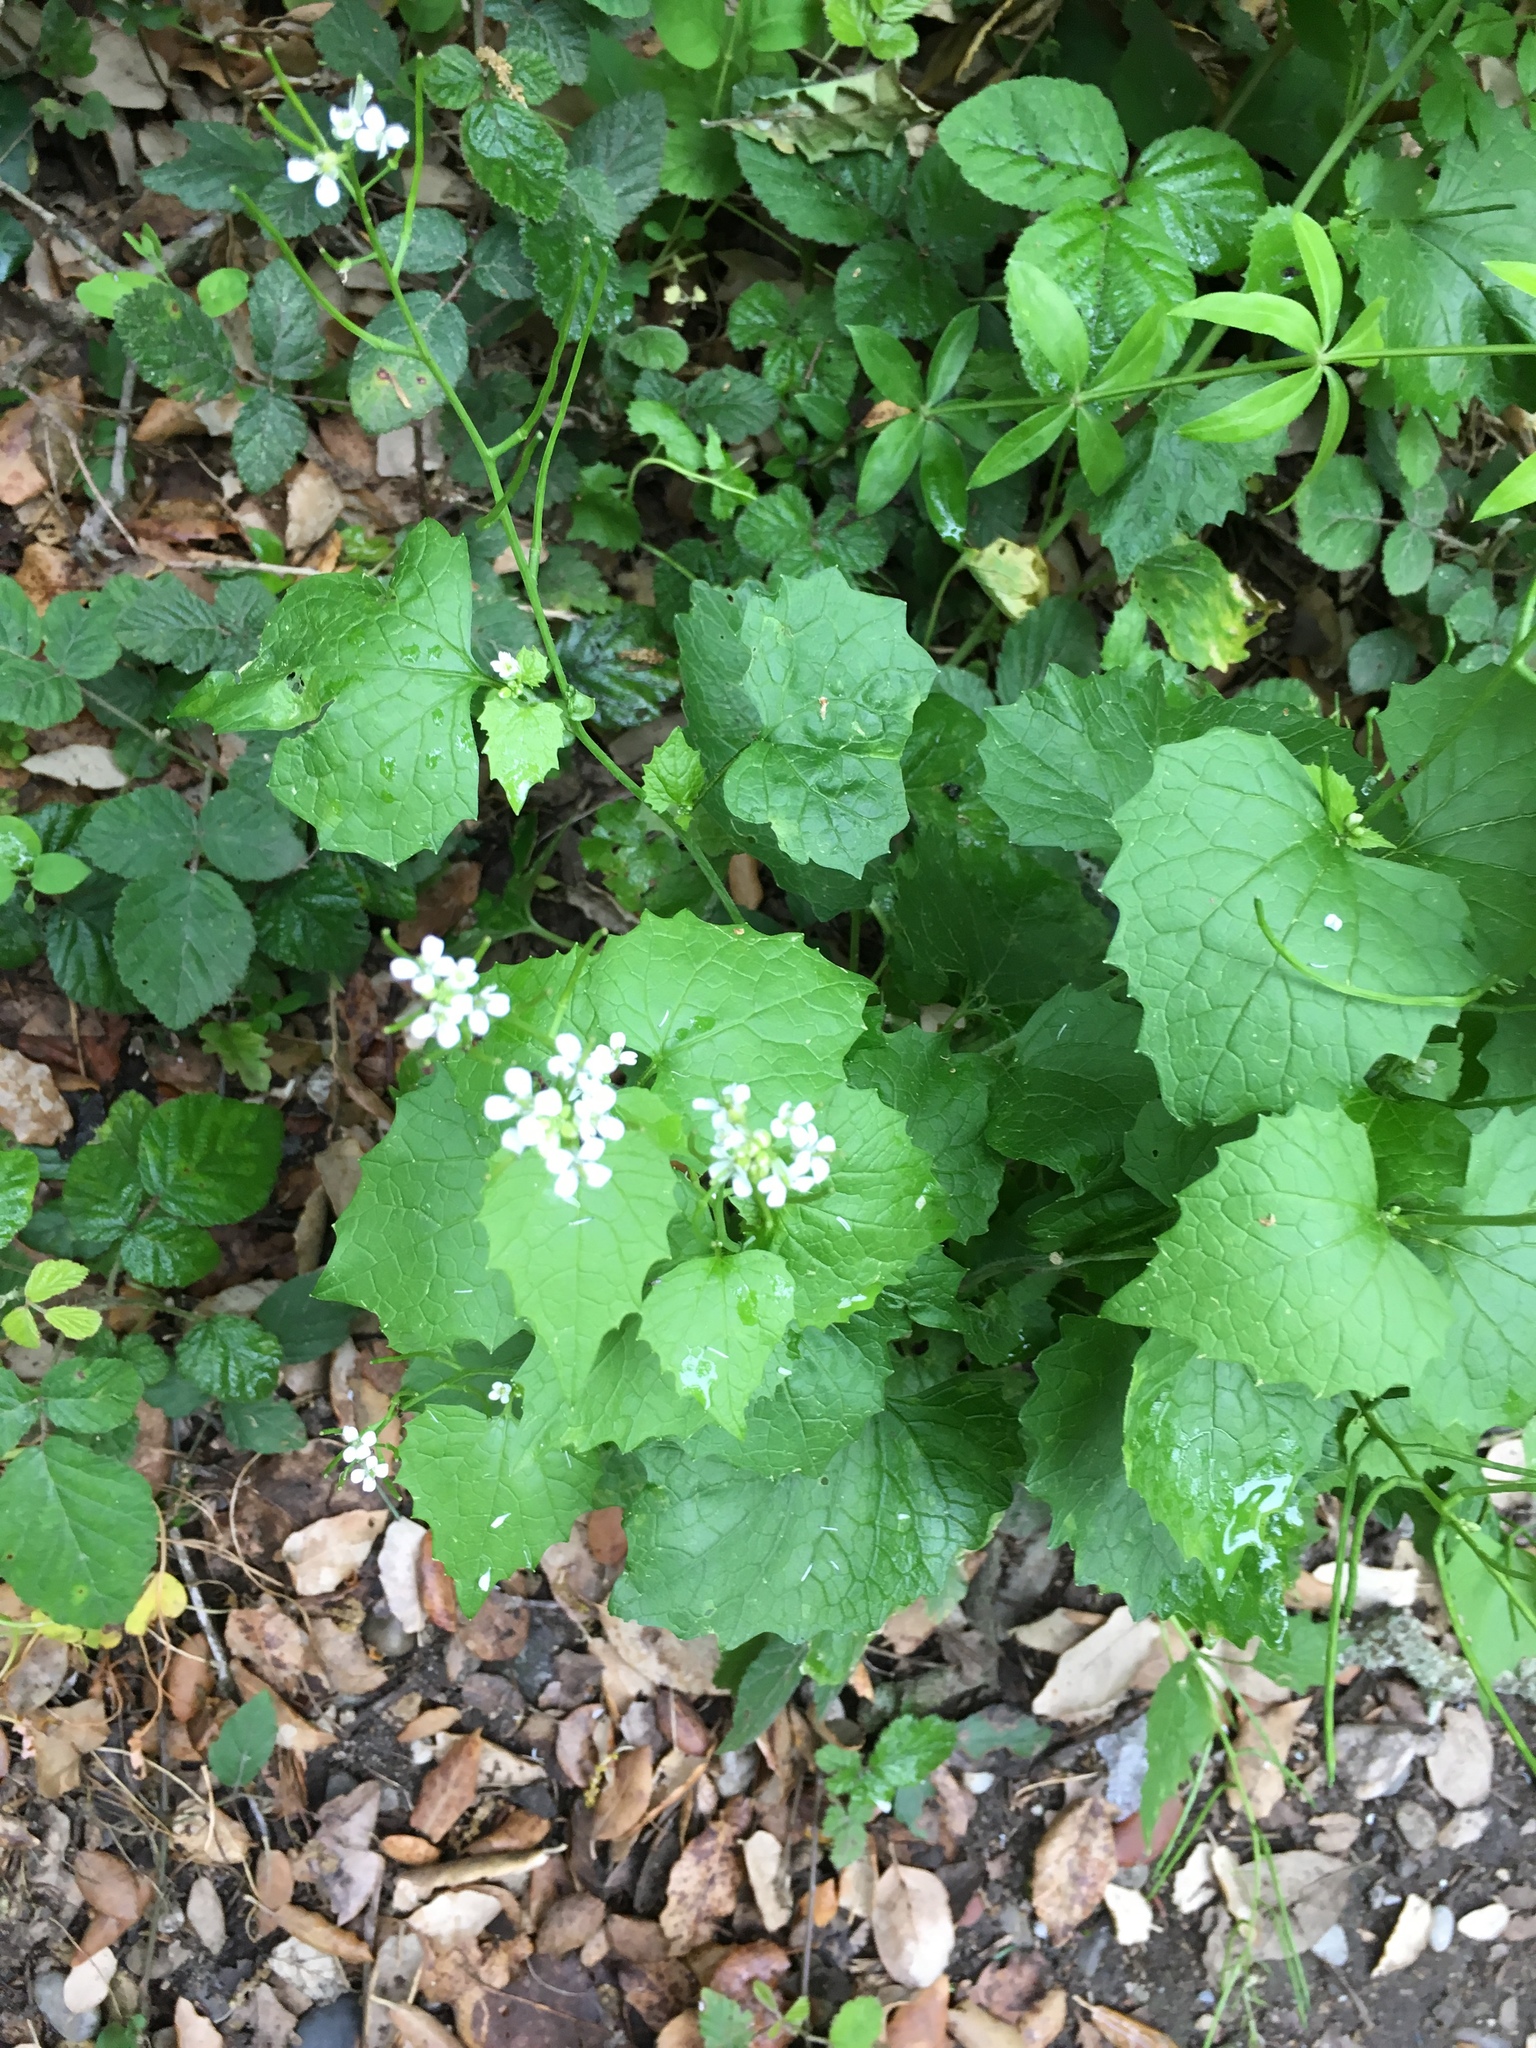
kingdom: Plantae
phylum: Tracheophyta
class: Magnoliopsida
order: Brassicales
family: Brassicaceae
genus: Alliaria
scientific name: Alliaria petiolata
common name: Garlic mustard
